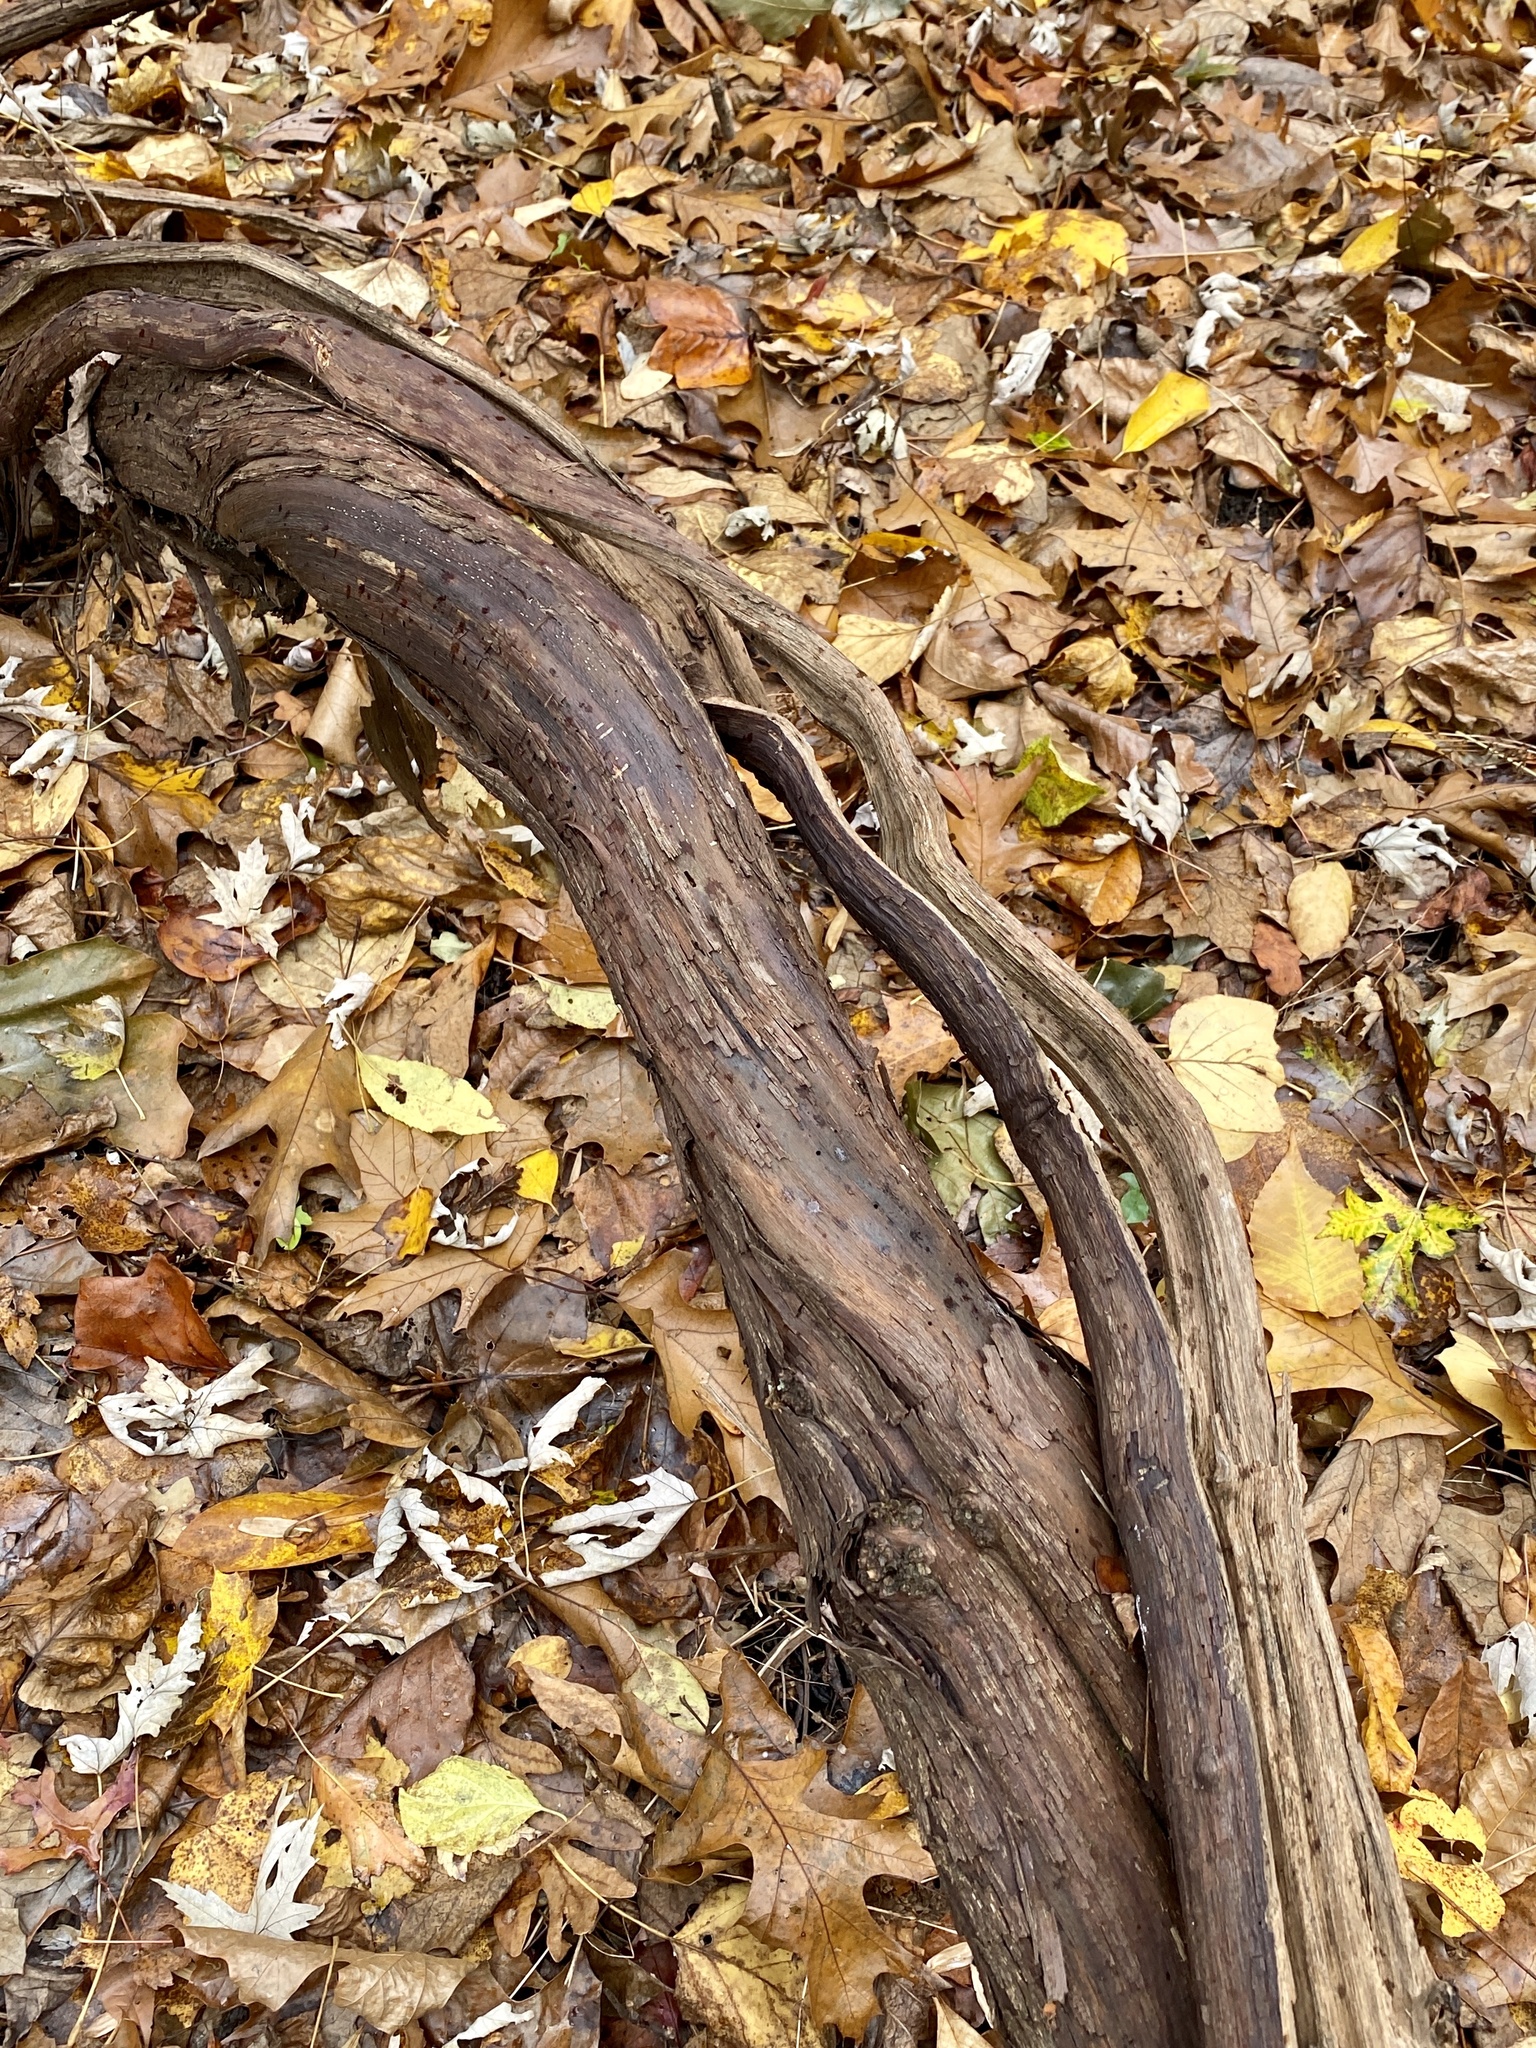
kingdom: Plantae
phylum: Tracheophyta
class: Magnoliopsida
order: Vitales
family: Vitaceae
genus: Vitis
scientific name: Vitis
